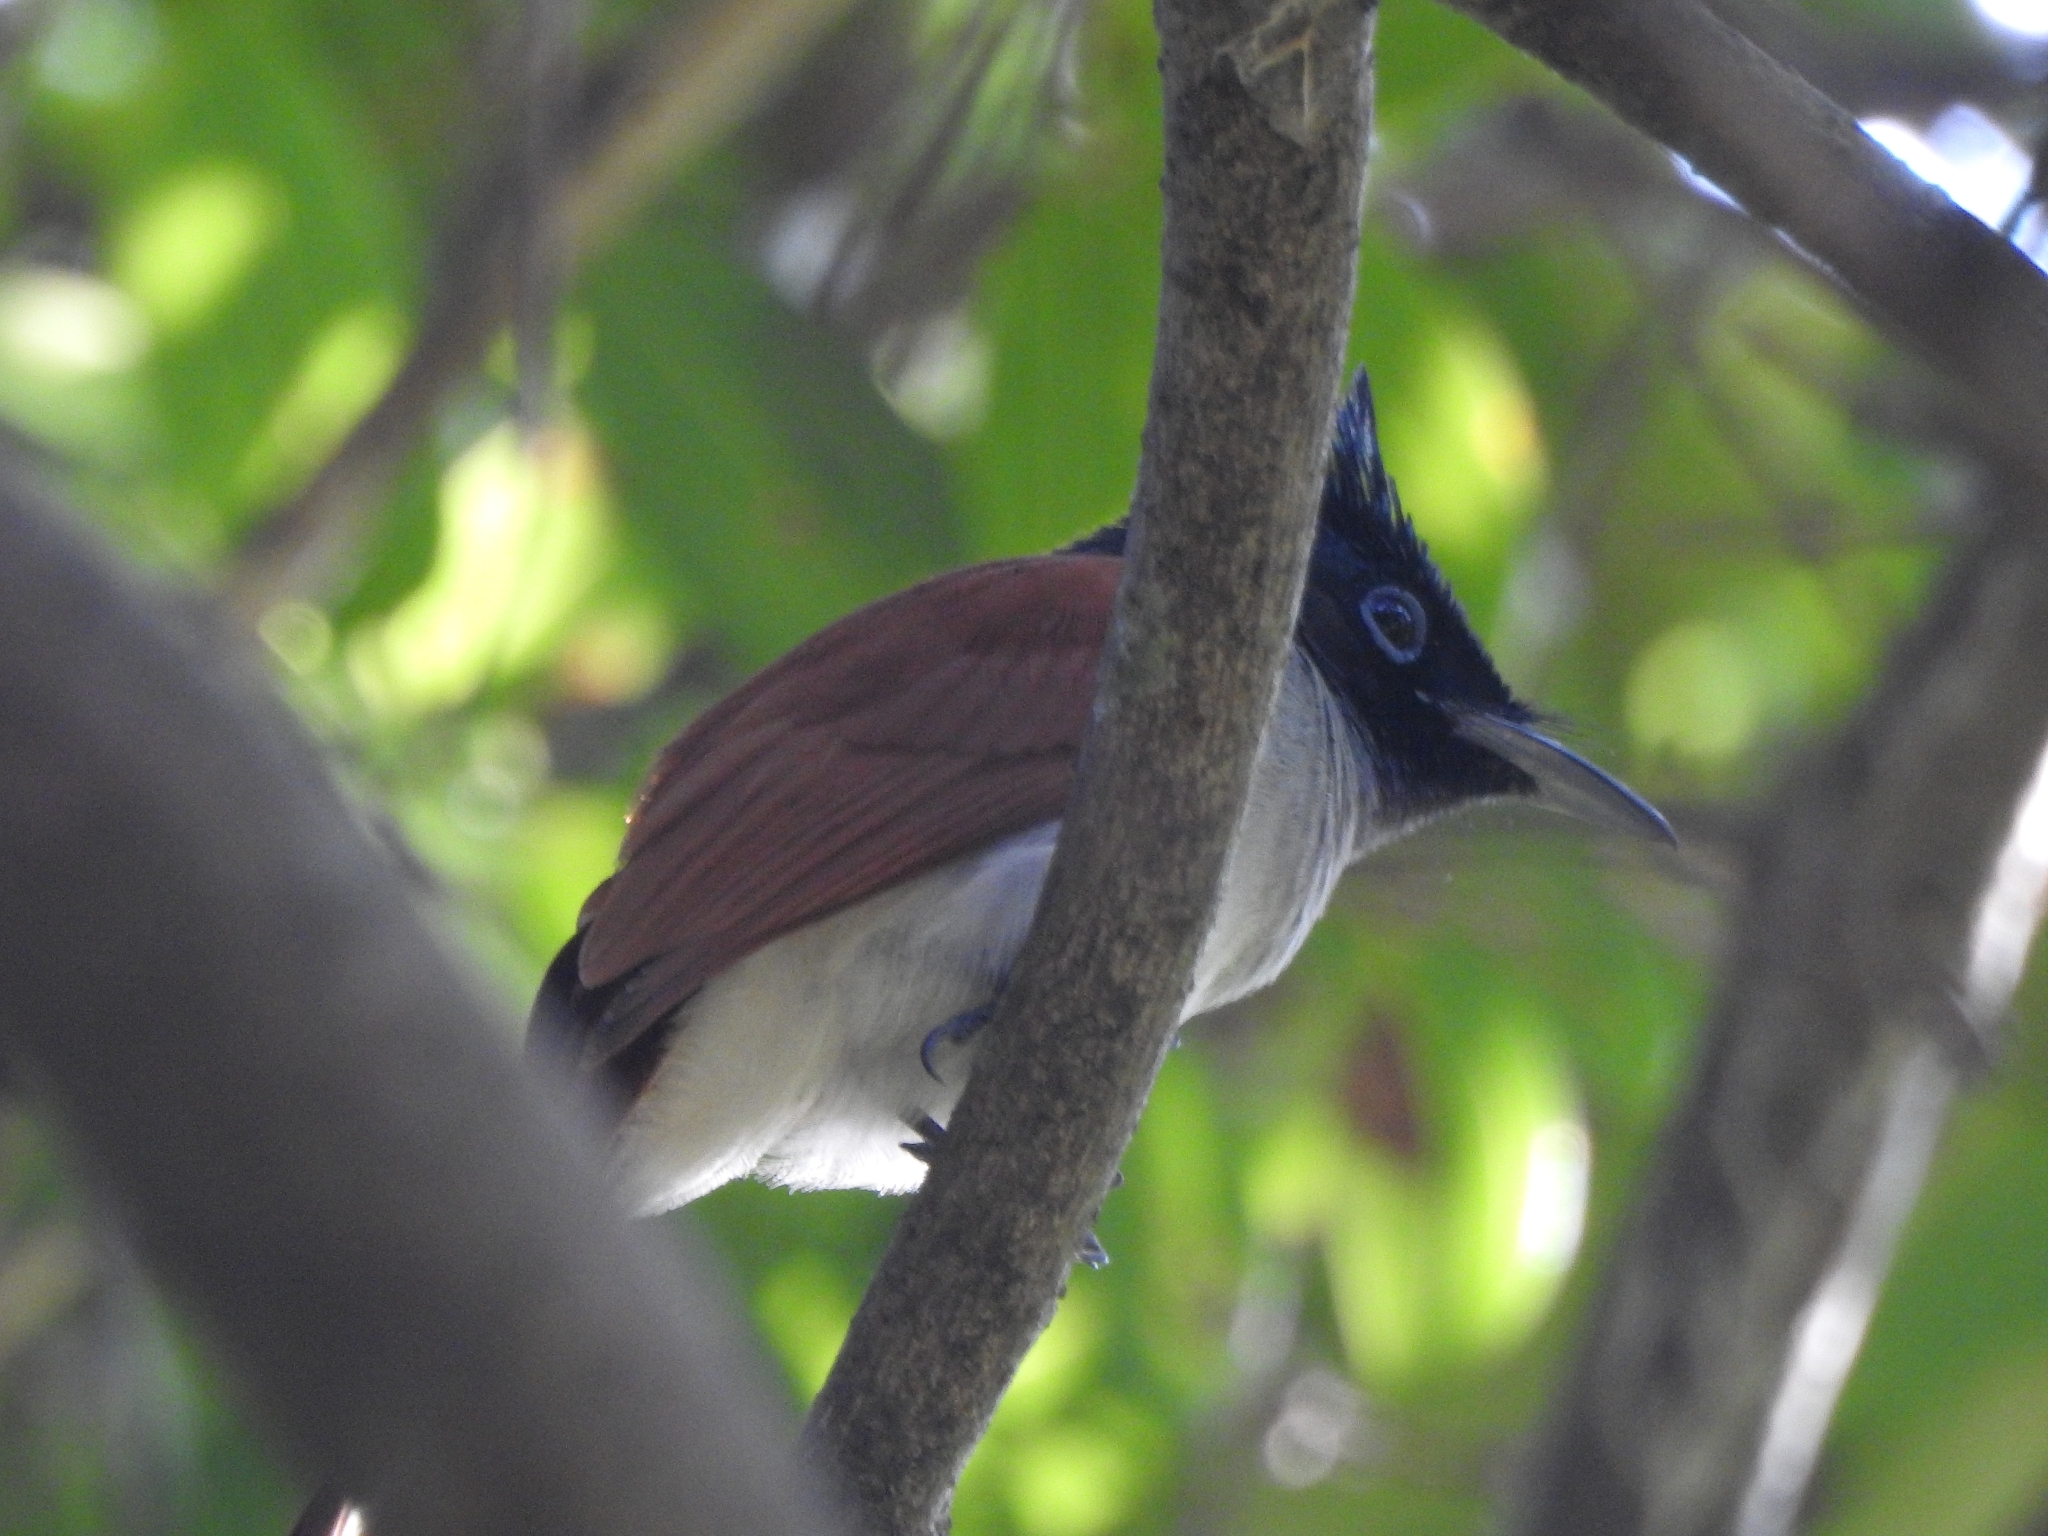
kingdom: Animalia
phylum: Chordata
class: Aves
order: Passeriformes
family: Monarchidae
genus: Terpsiphone
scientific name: Terpsiphone paradisi
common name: Indian paradise flycatcher
